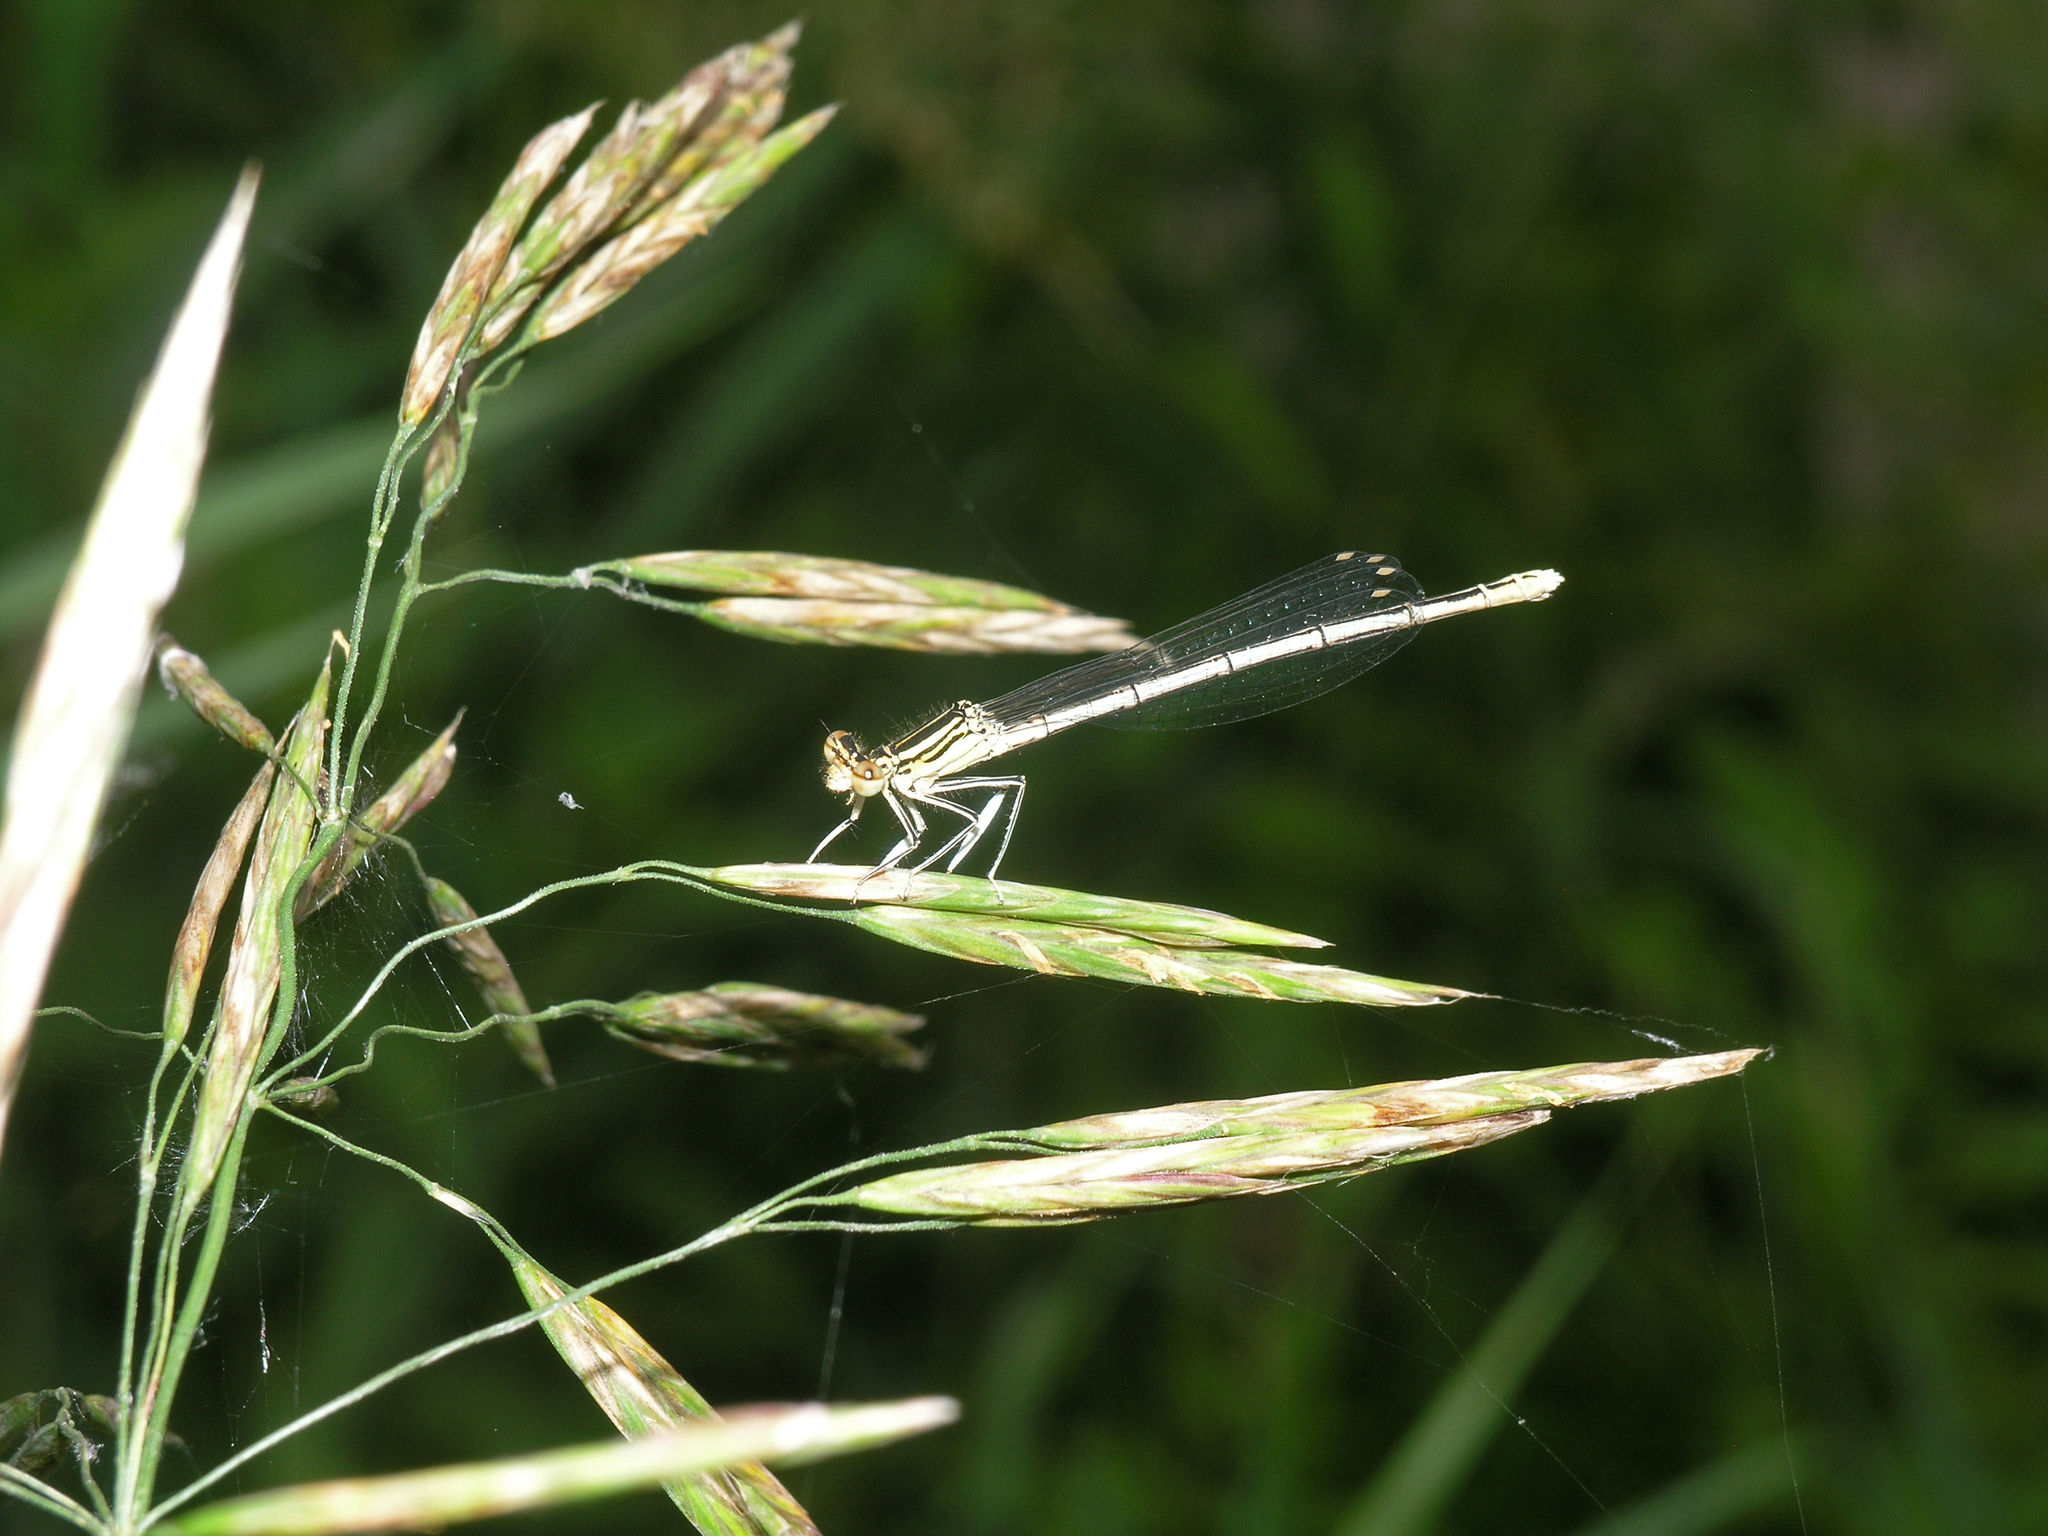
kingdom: Animalia
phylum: Arthropoda
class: Insecta
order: Odonata
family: Platycnemididae
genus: Platycnemis
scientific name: Platycnemis pennipes
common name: White-legged damselfly
